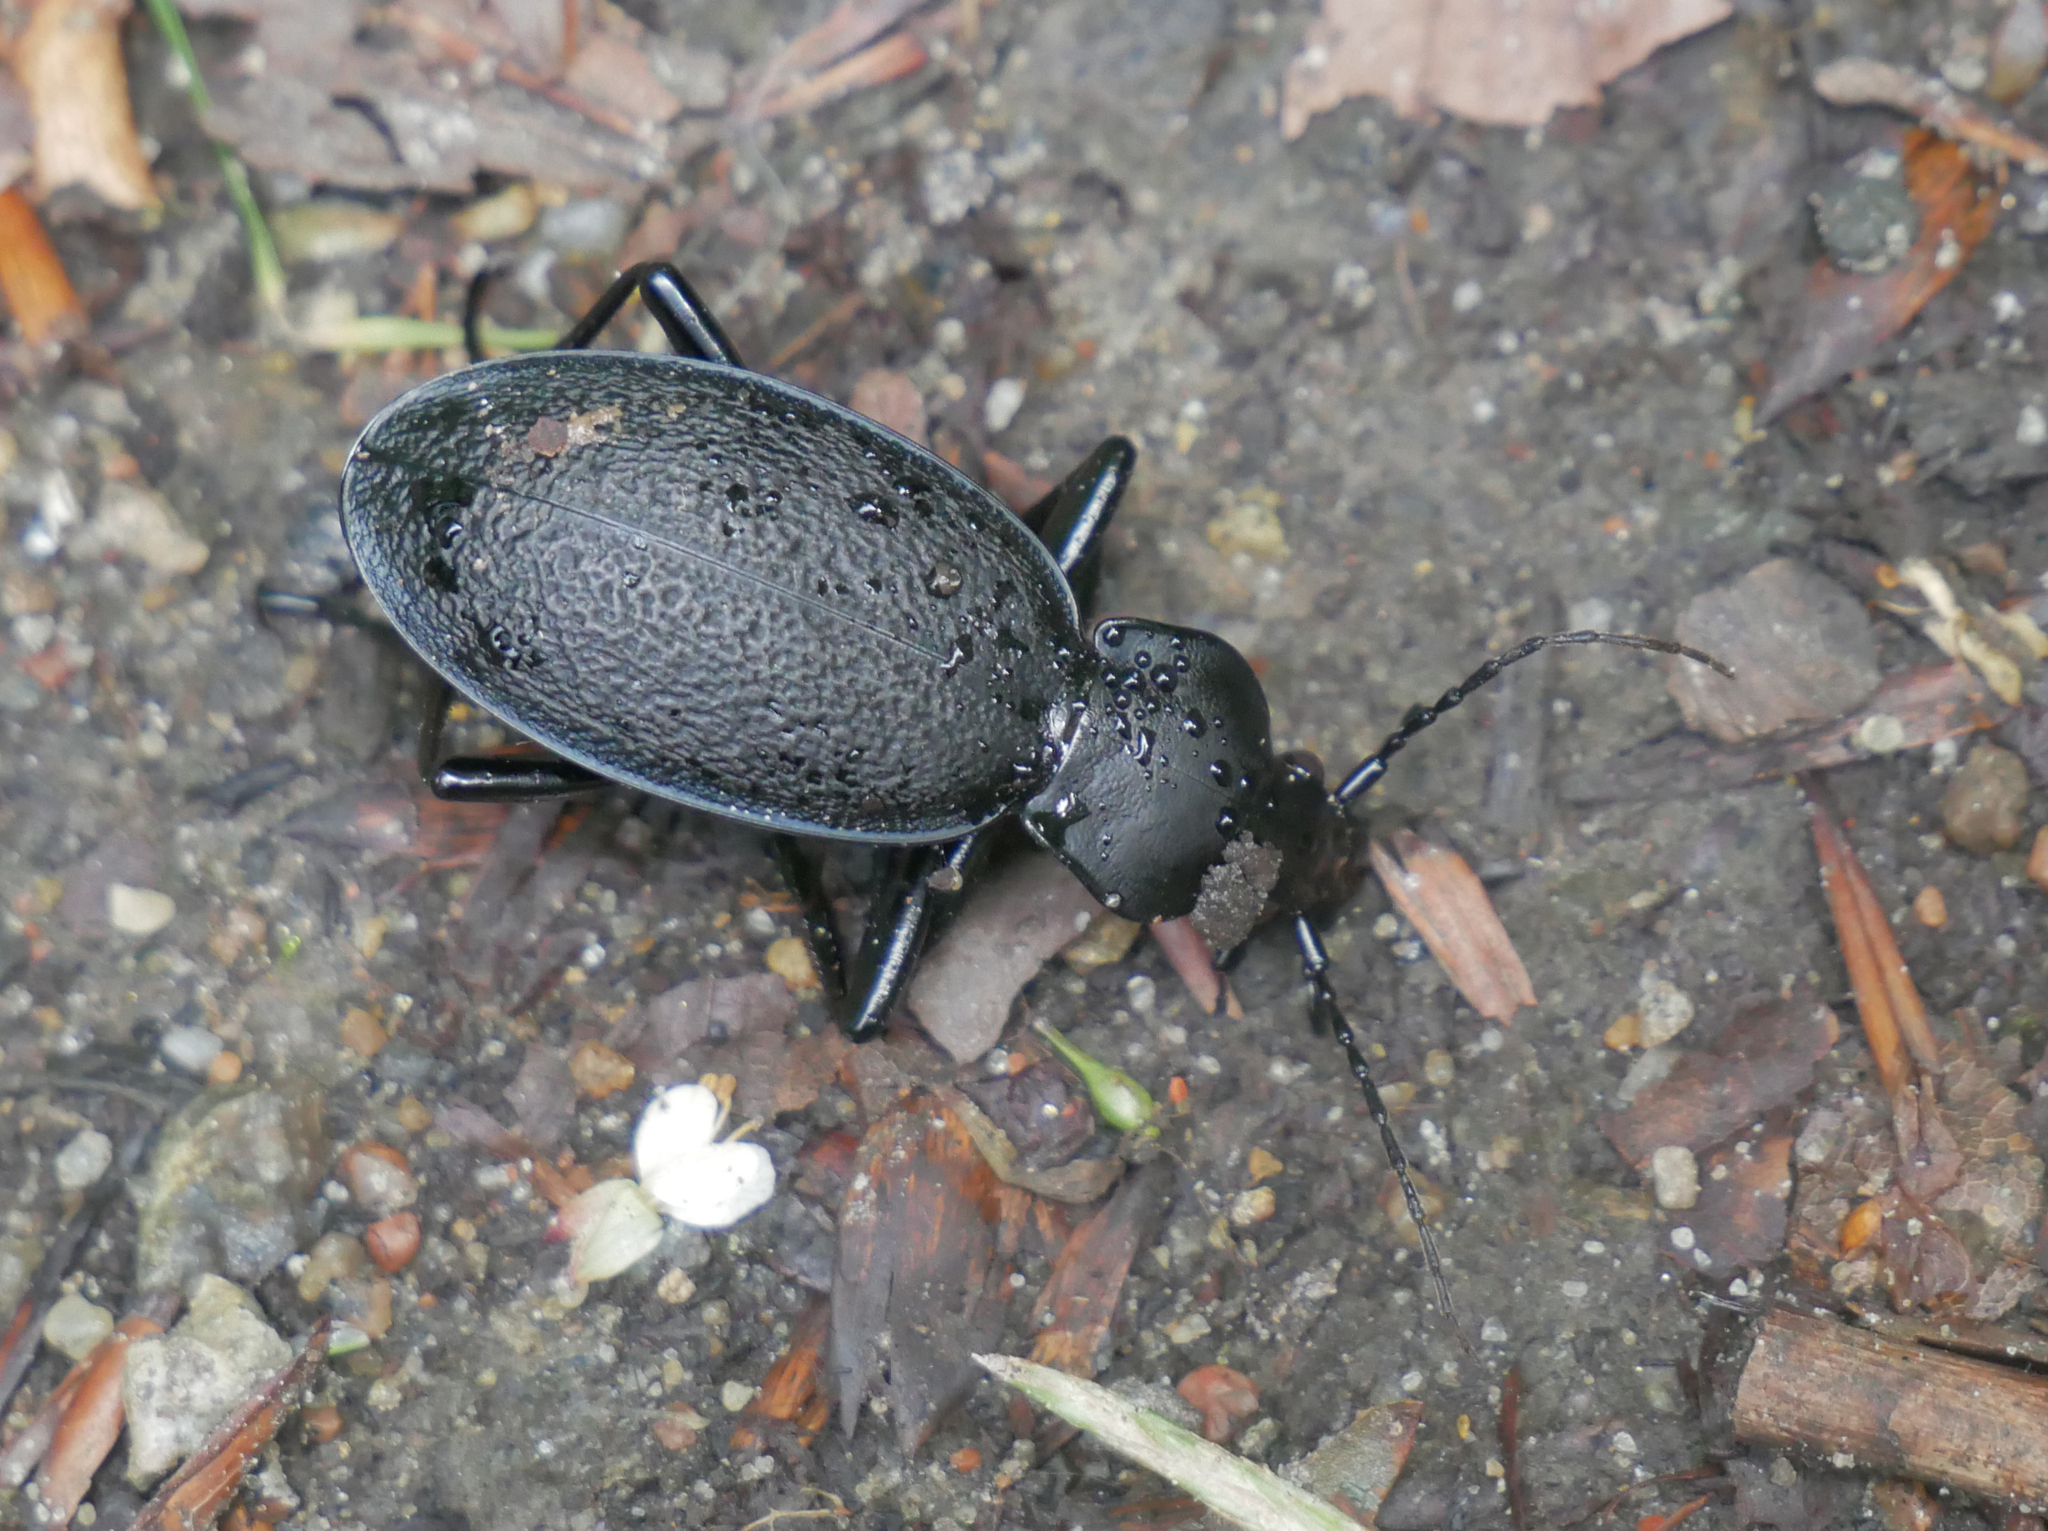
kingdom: Animalia
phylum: Arthropoda
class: Insecta
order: Coleoptera
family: Carabidae
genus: Carabus
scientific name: Carabus coriaceus
